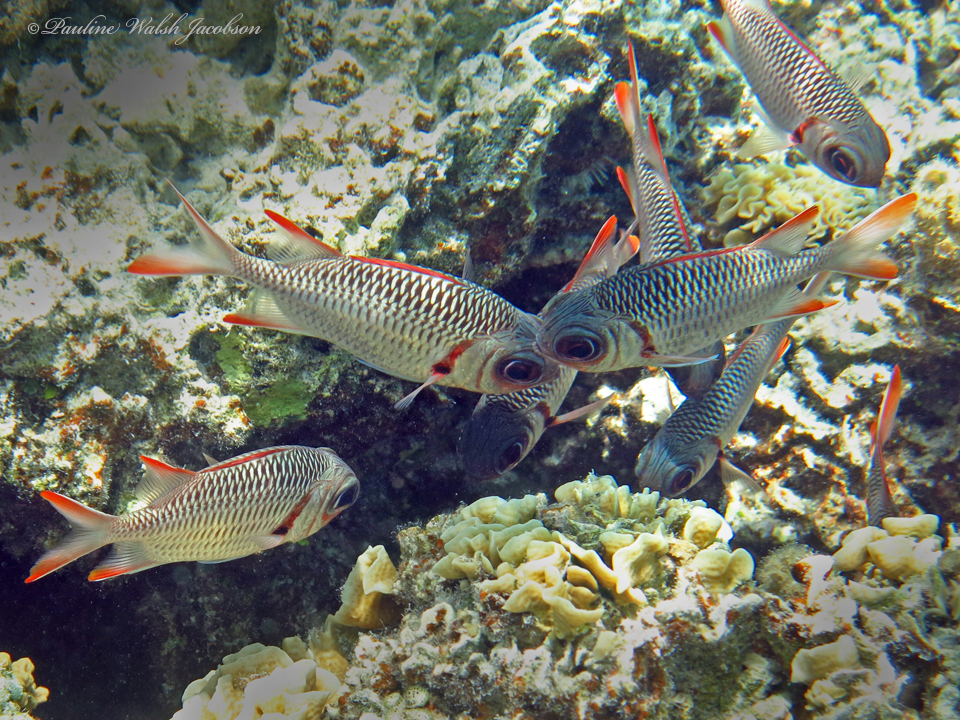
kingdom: Animalia
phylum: Chordata
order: Beryciformes
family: Holocentridae
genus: Myripristis
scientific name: Myripristis violacea
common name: Lattice soldierfish
